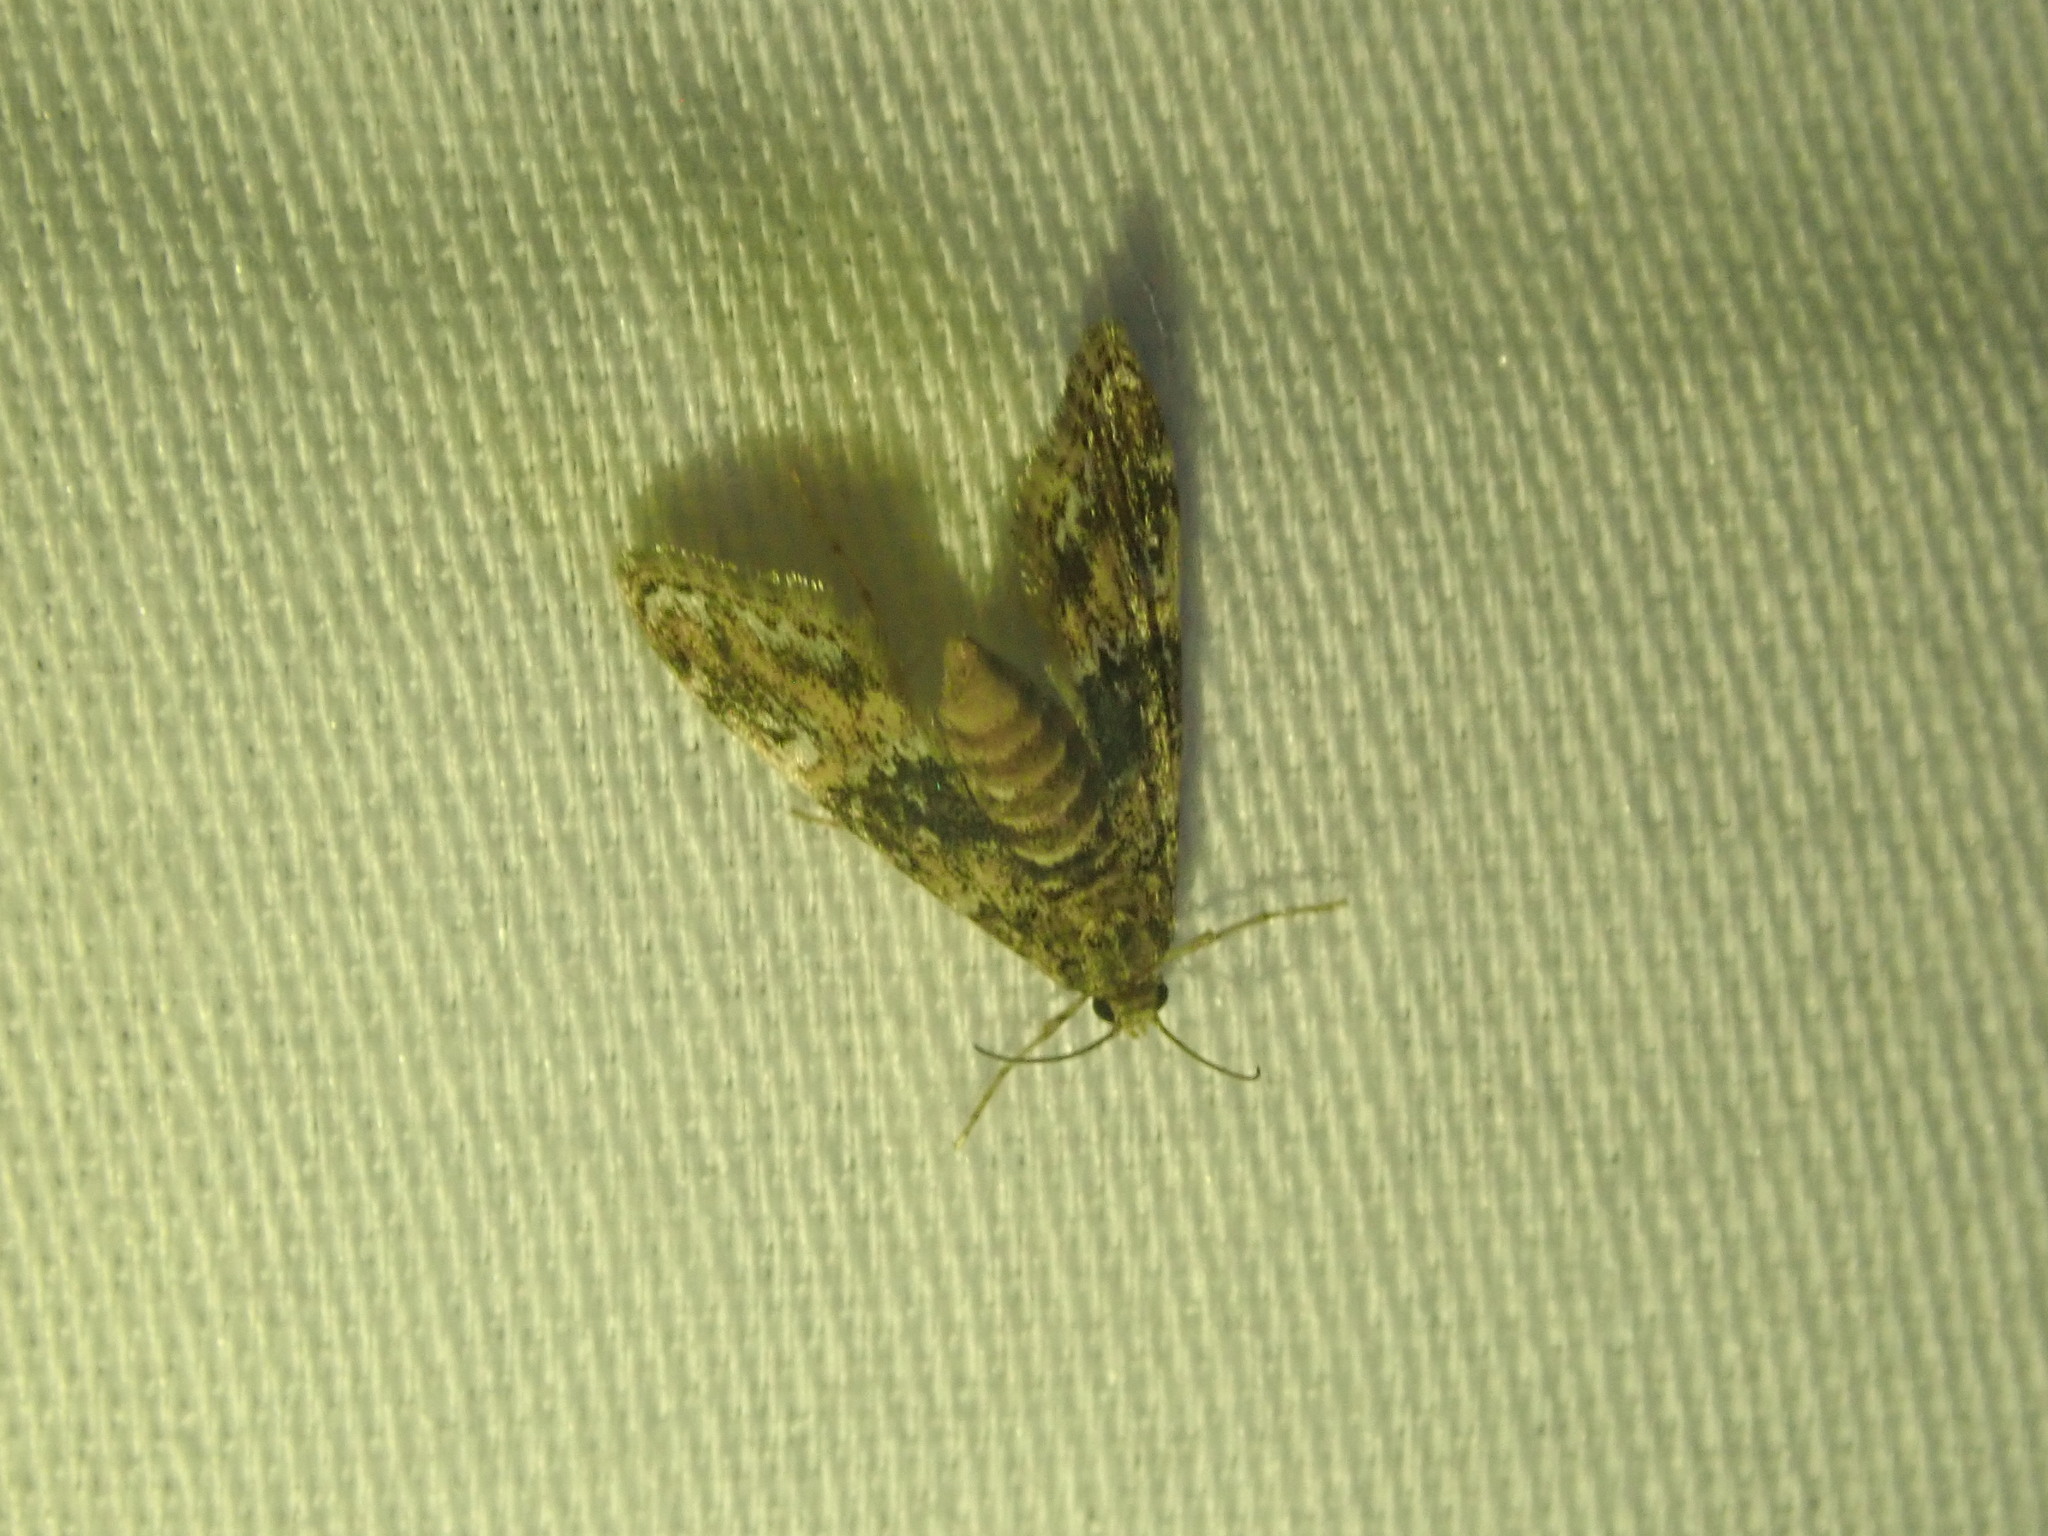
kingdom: Animalia
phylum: Arthropoda
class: Insecta
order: Lepidoptera
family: Crambidae
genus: Elophila
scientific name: Elophila obliteralis
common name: Waterlily leafcutter moth
